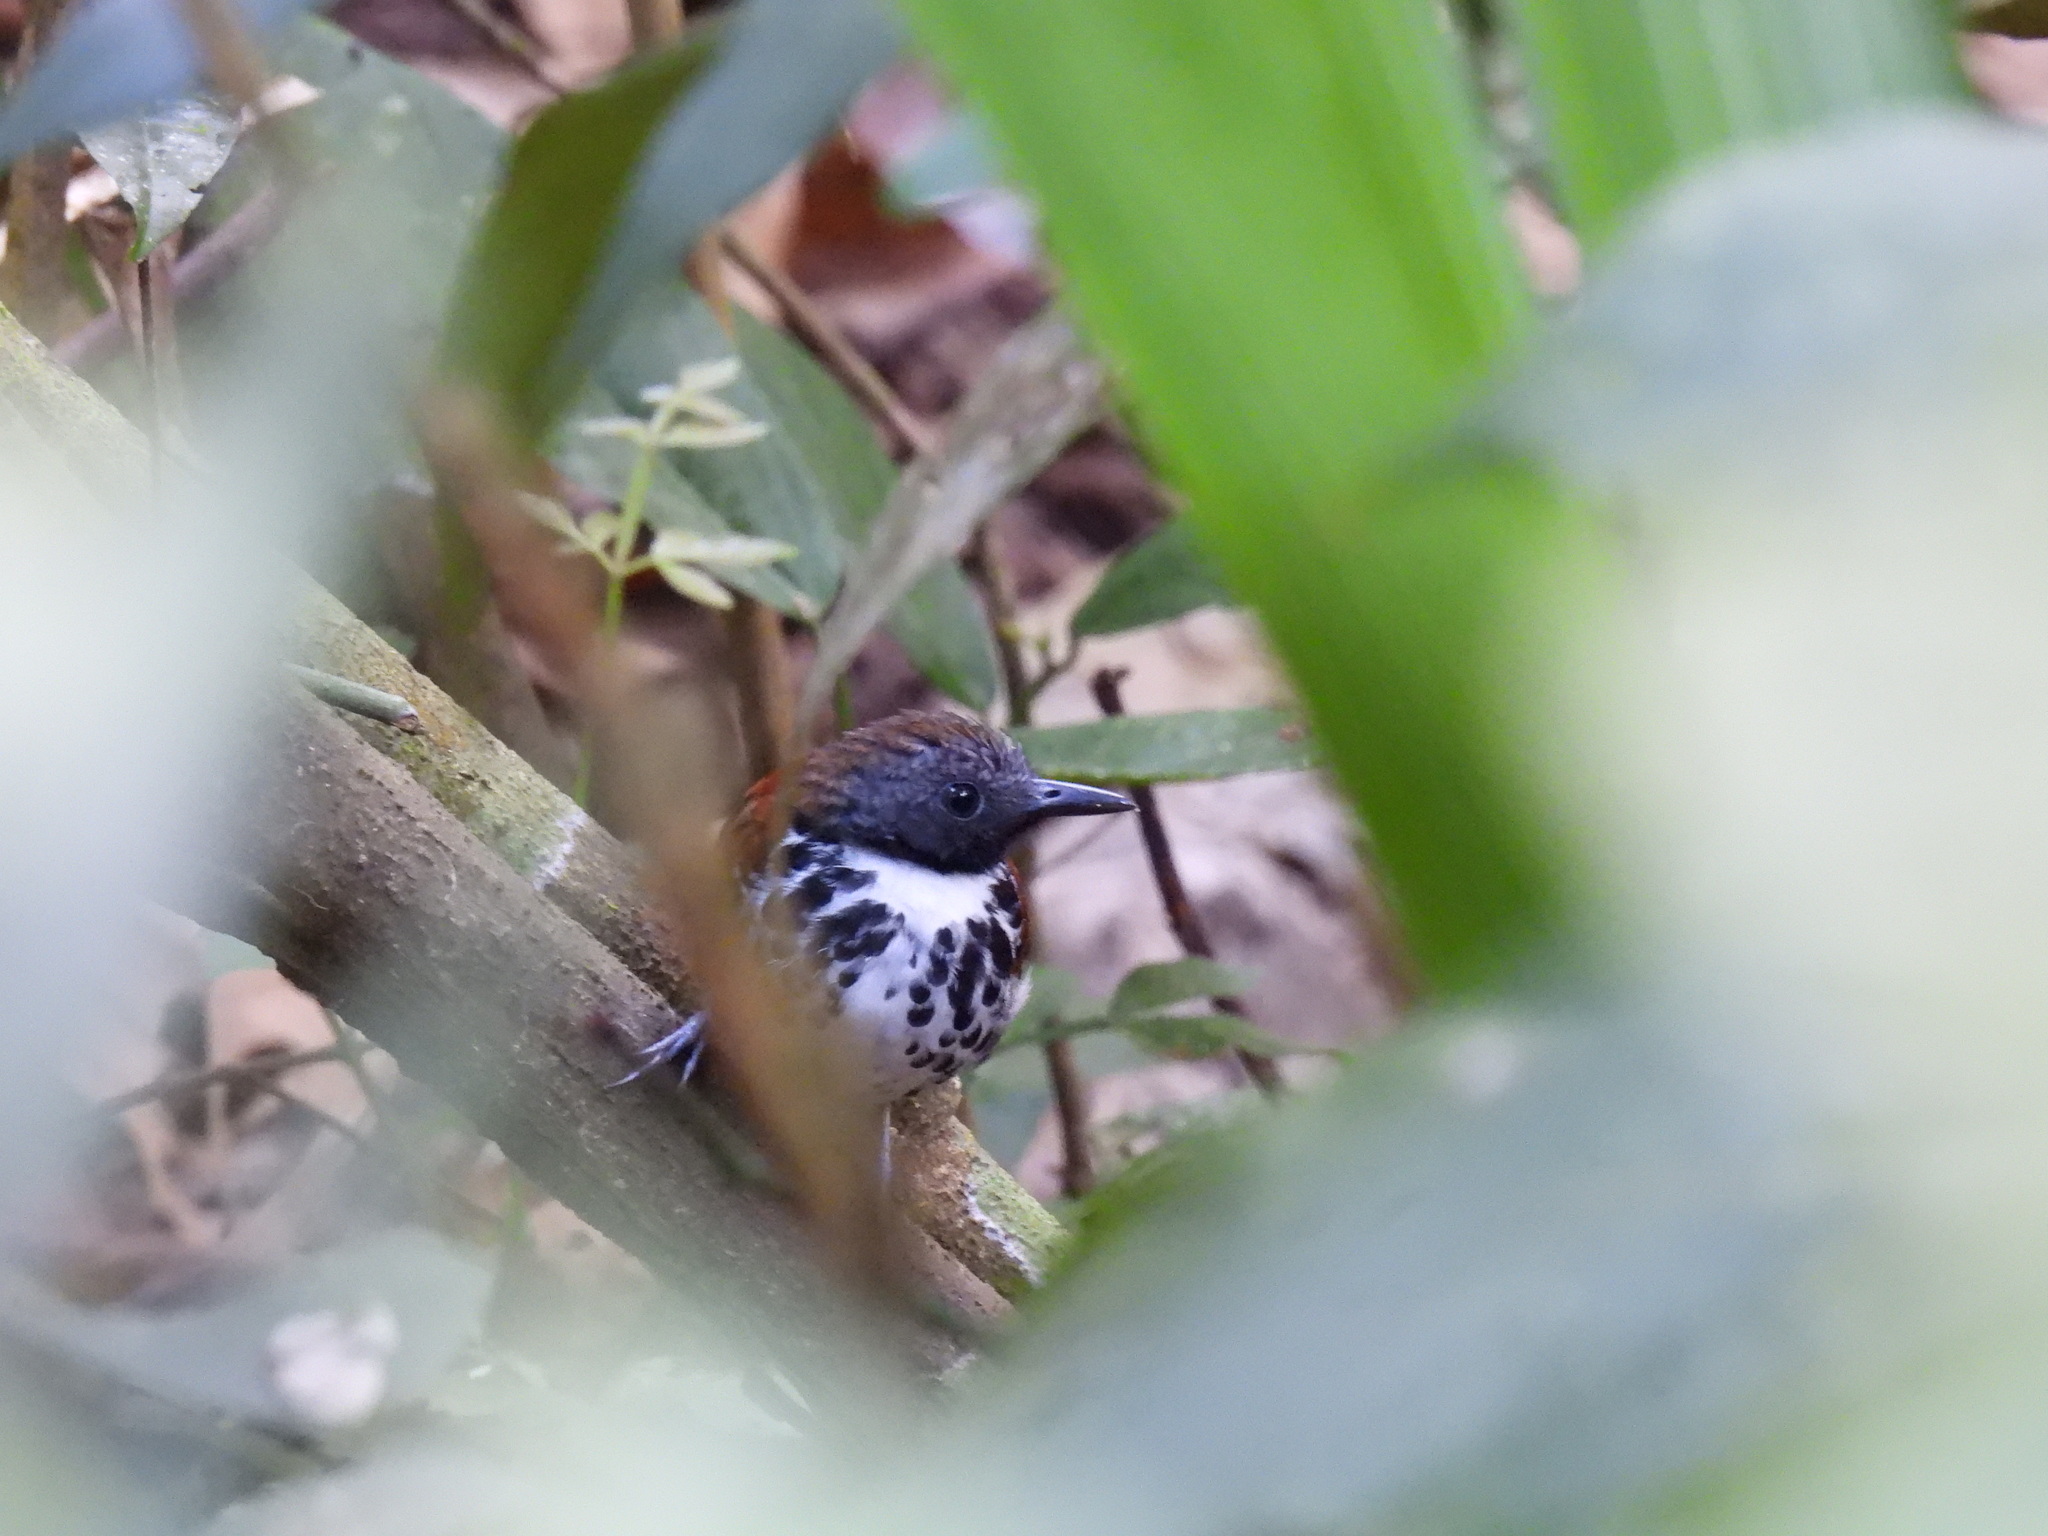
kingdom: Animalia
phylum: Chordata
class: Aves
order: Passeriformes
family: Thamnophilidae
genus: Hylophylax
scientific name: Hylophylax naevioides
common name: Spotted antbird
